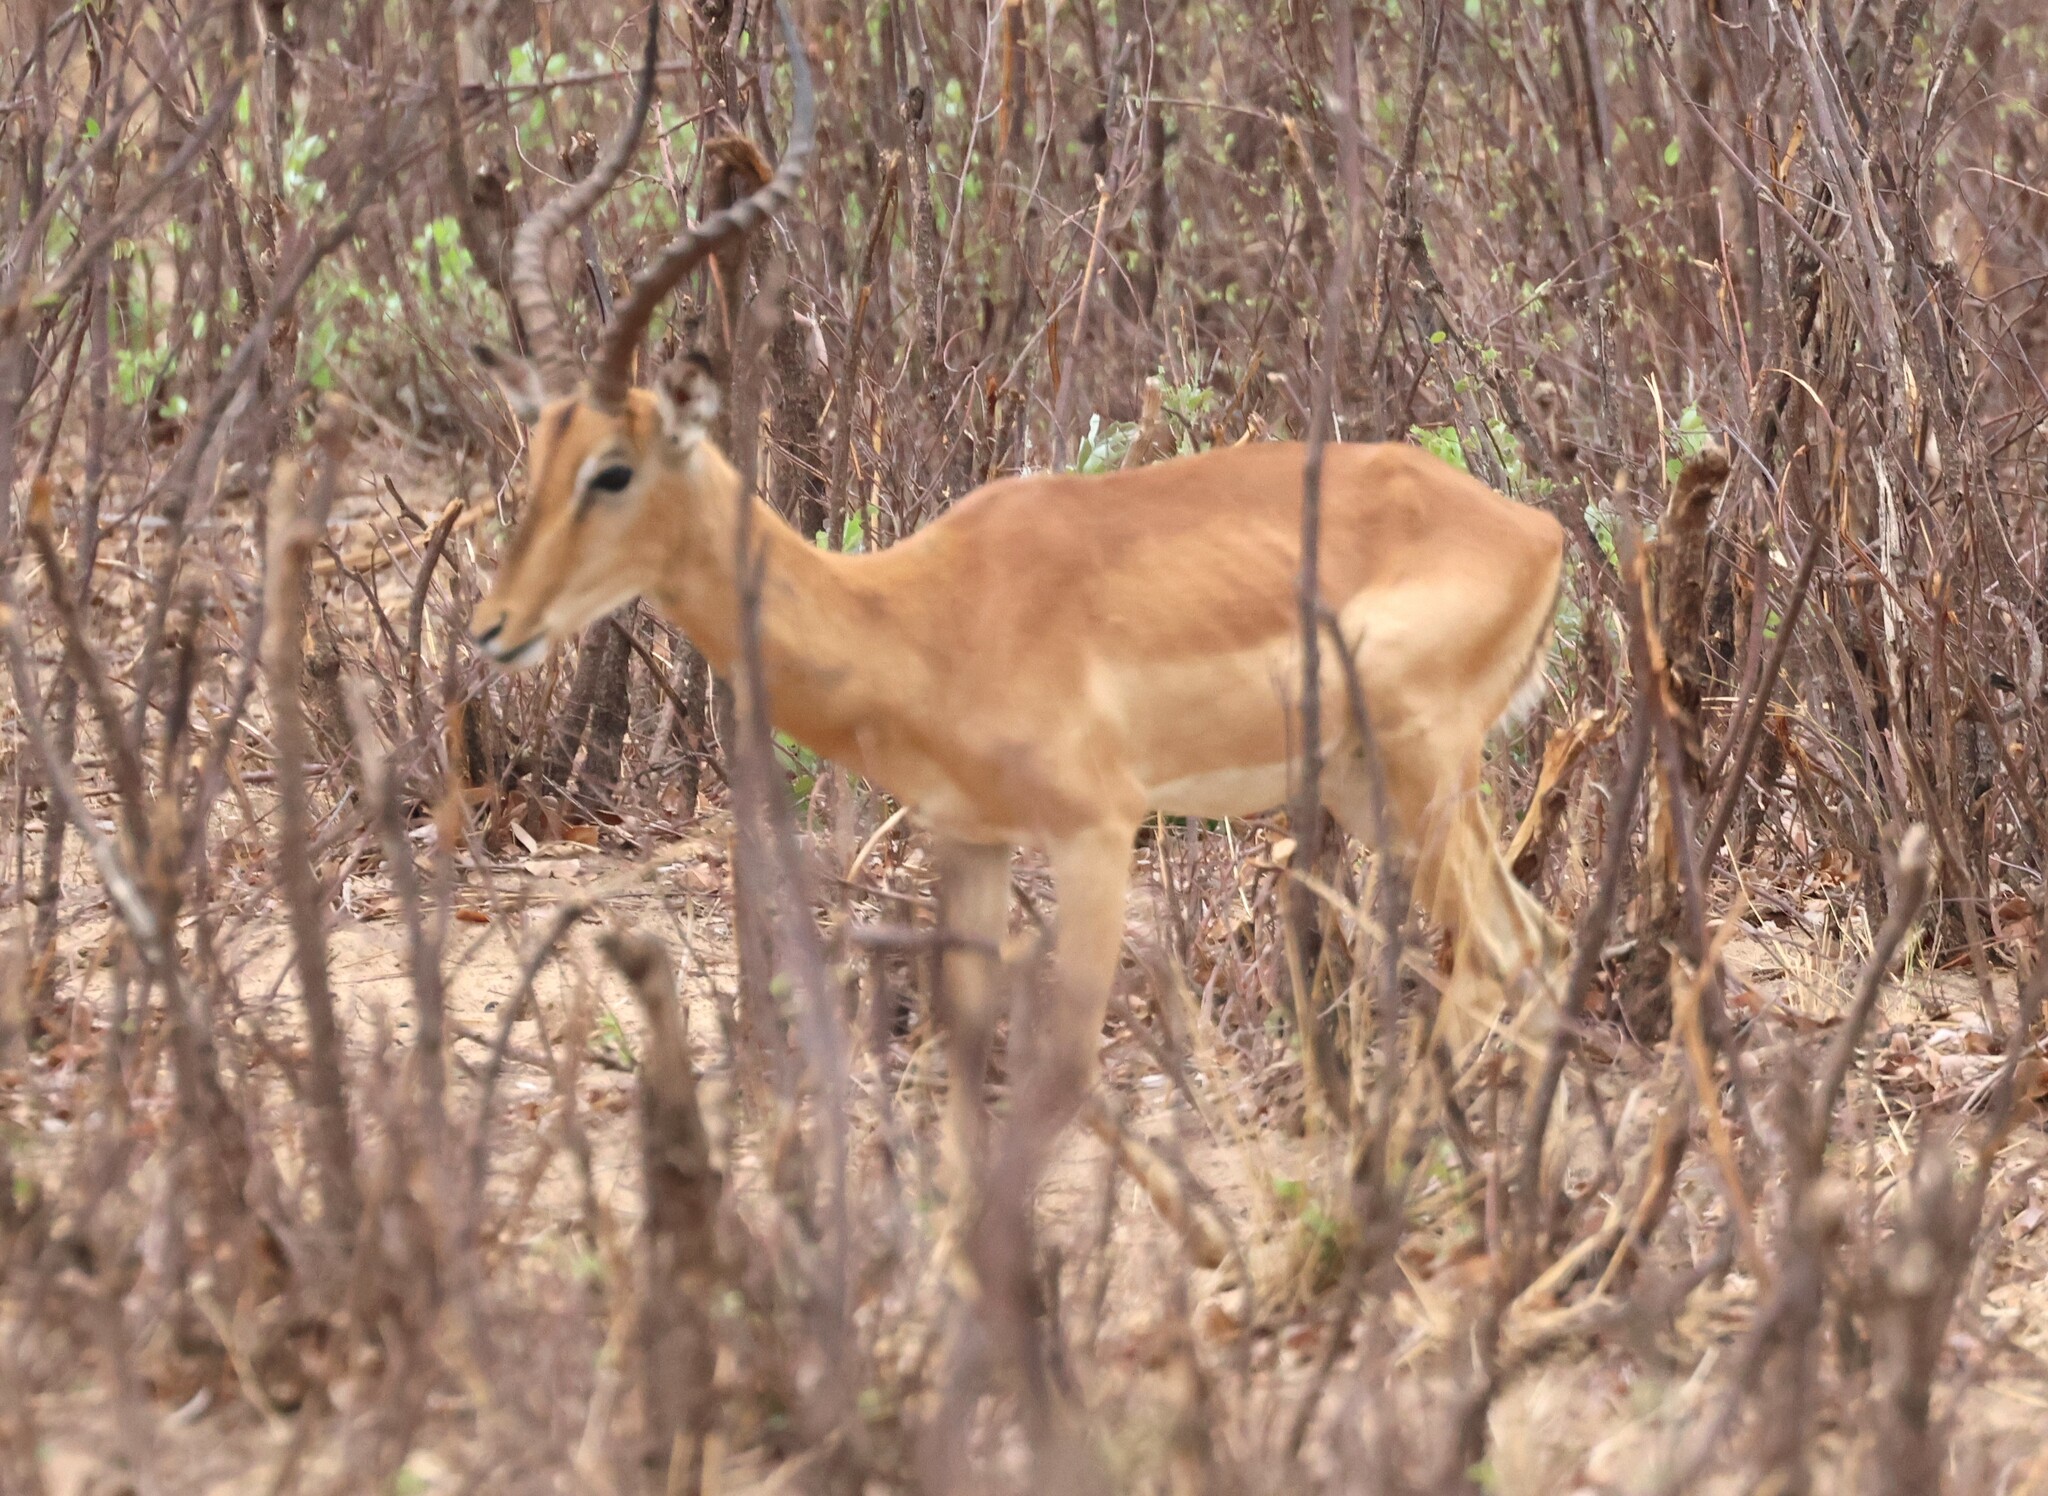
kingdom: Animalia
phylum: Chordata
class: Mammalia
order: Artiodactyla
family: Bovidae
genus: Aepyceros
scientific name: Aepyceros melampus
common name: Impala
